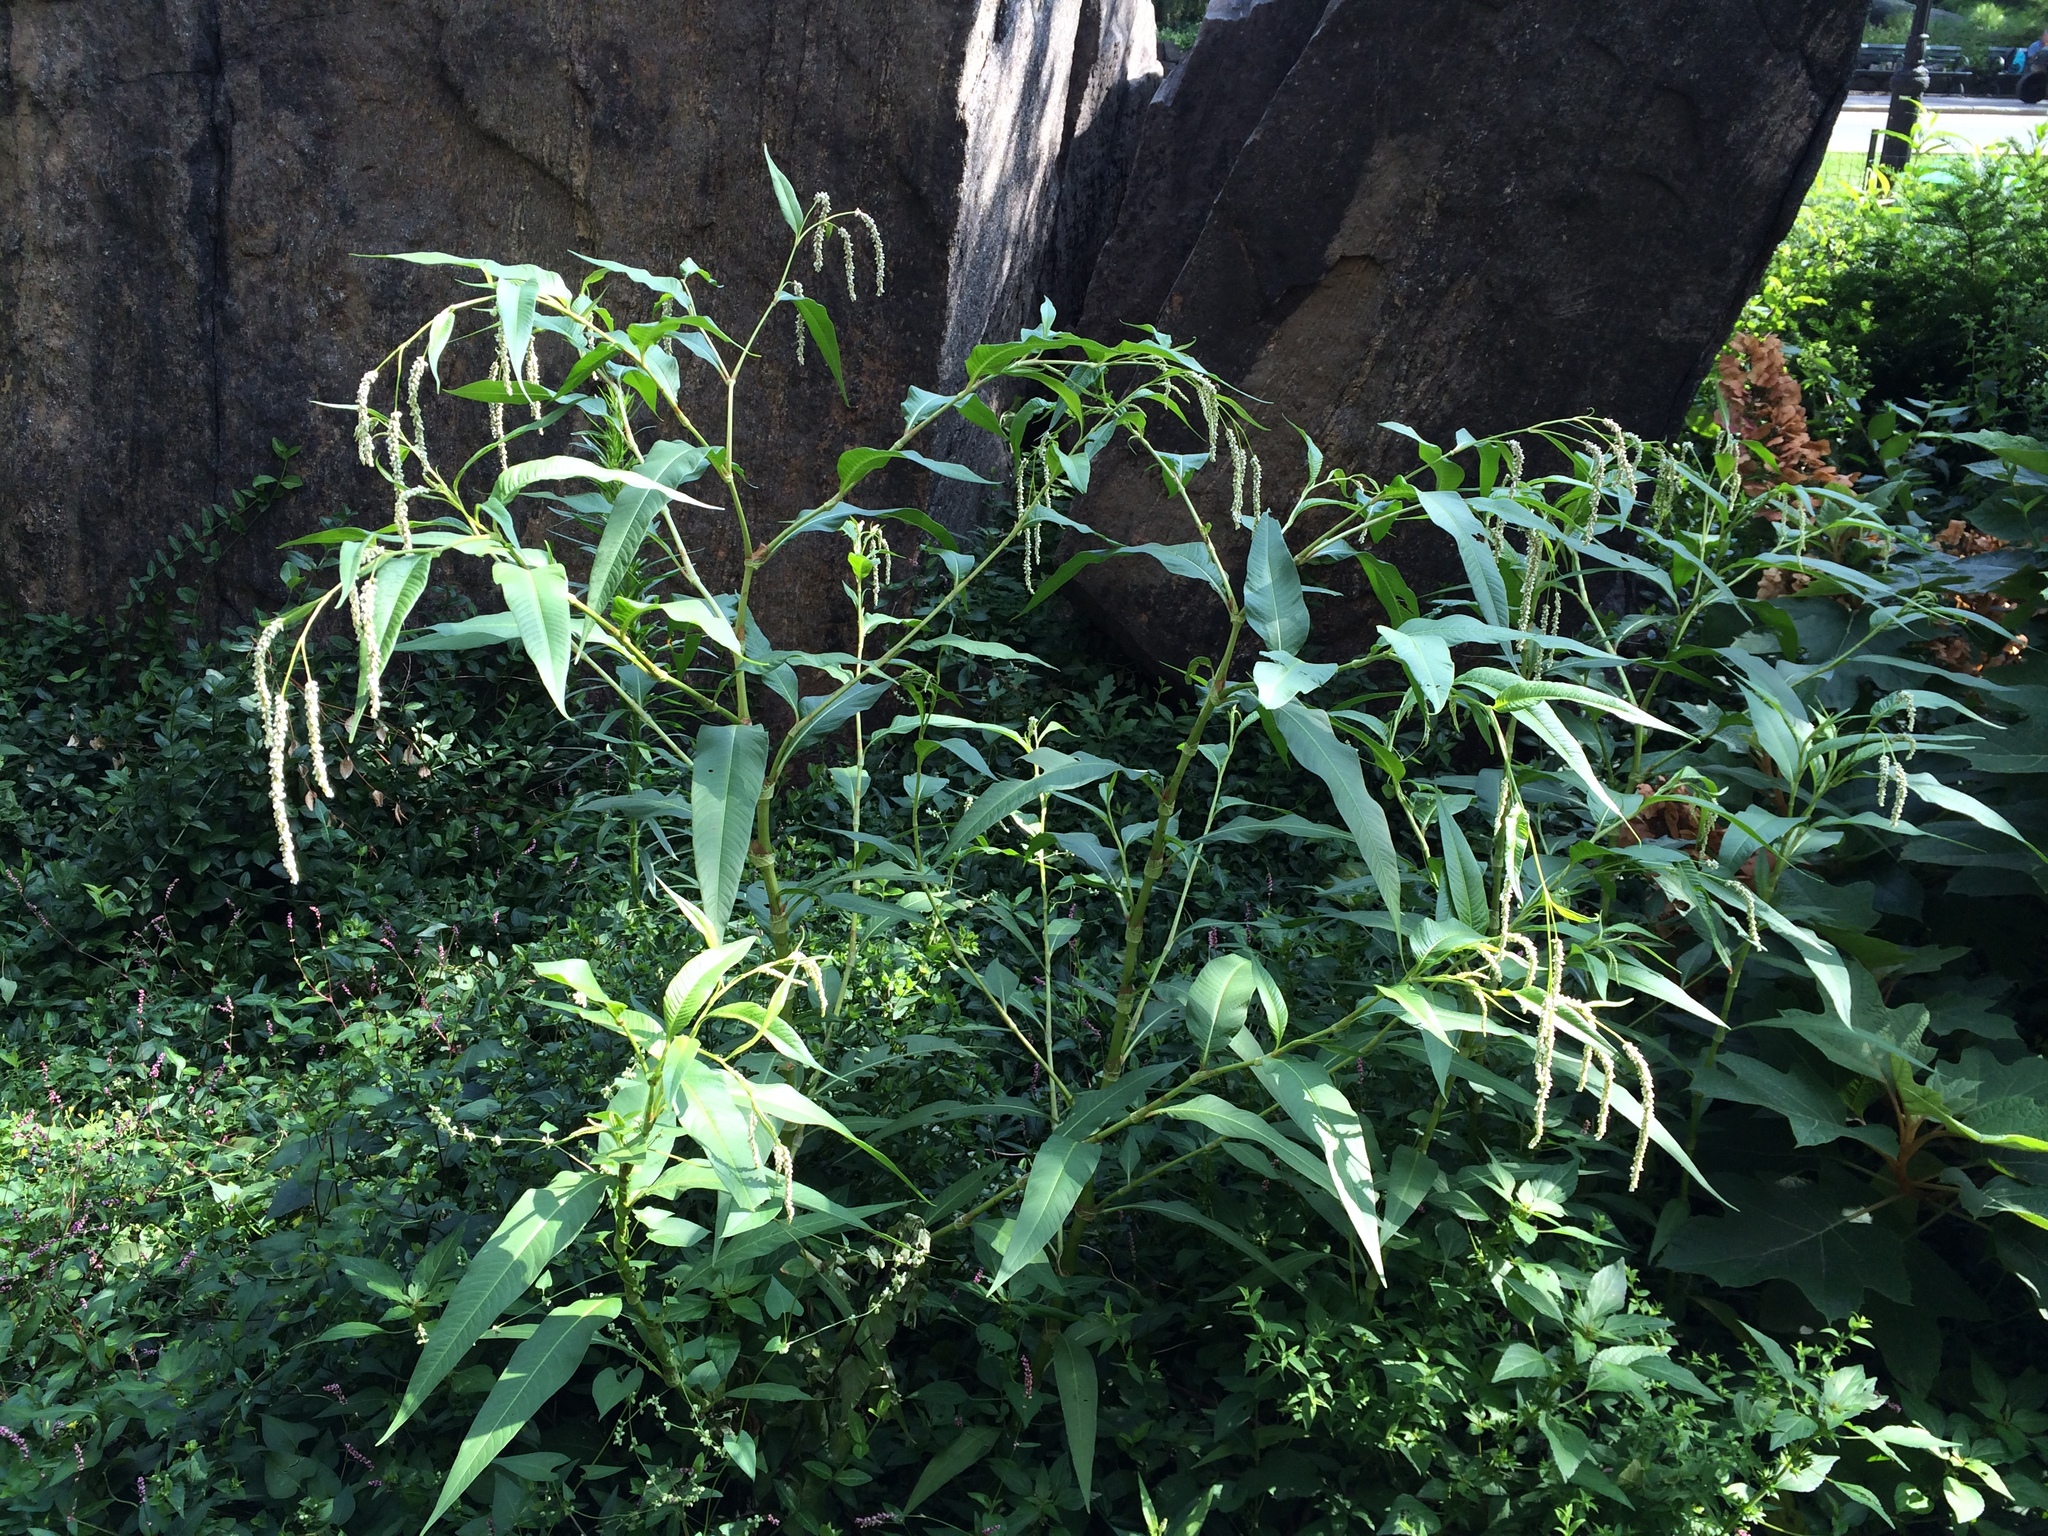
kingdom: Plantae
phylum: Tracheophyta
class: Magnoliopsida
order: Caryophyllales
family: Polygonaceae
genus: Persicaria
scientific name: Persicaria lapathifolia
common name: Curlytop knotweed
